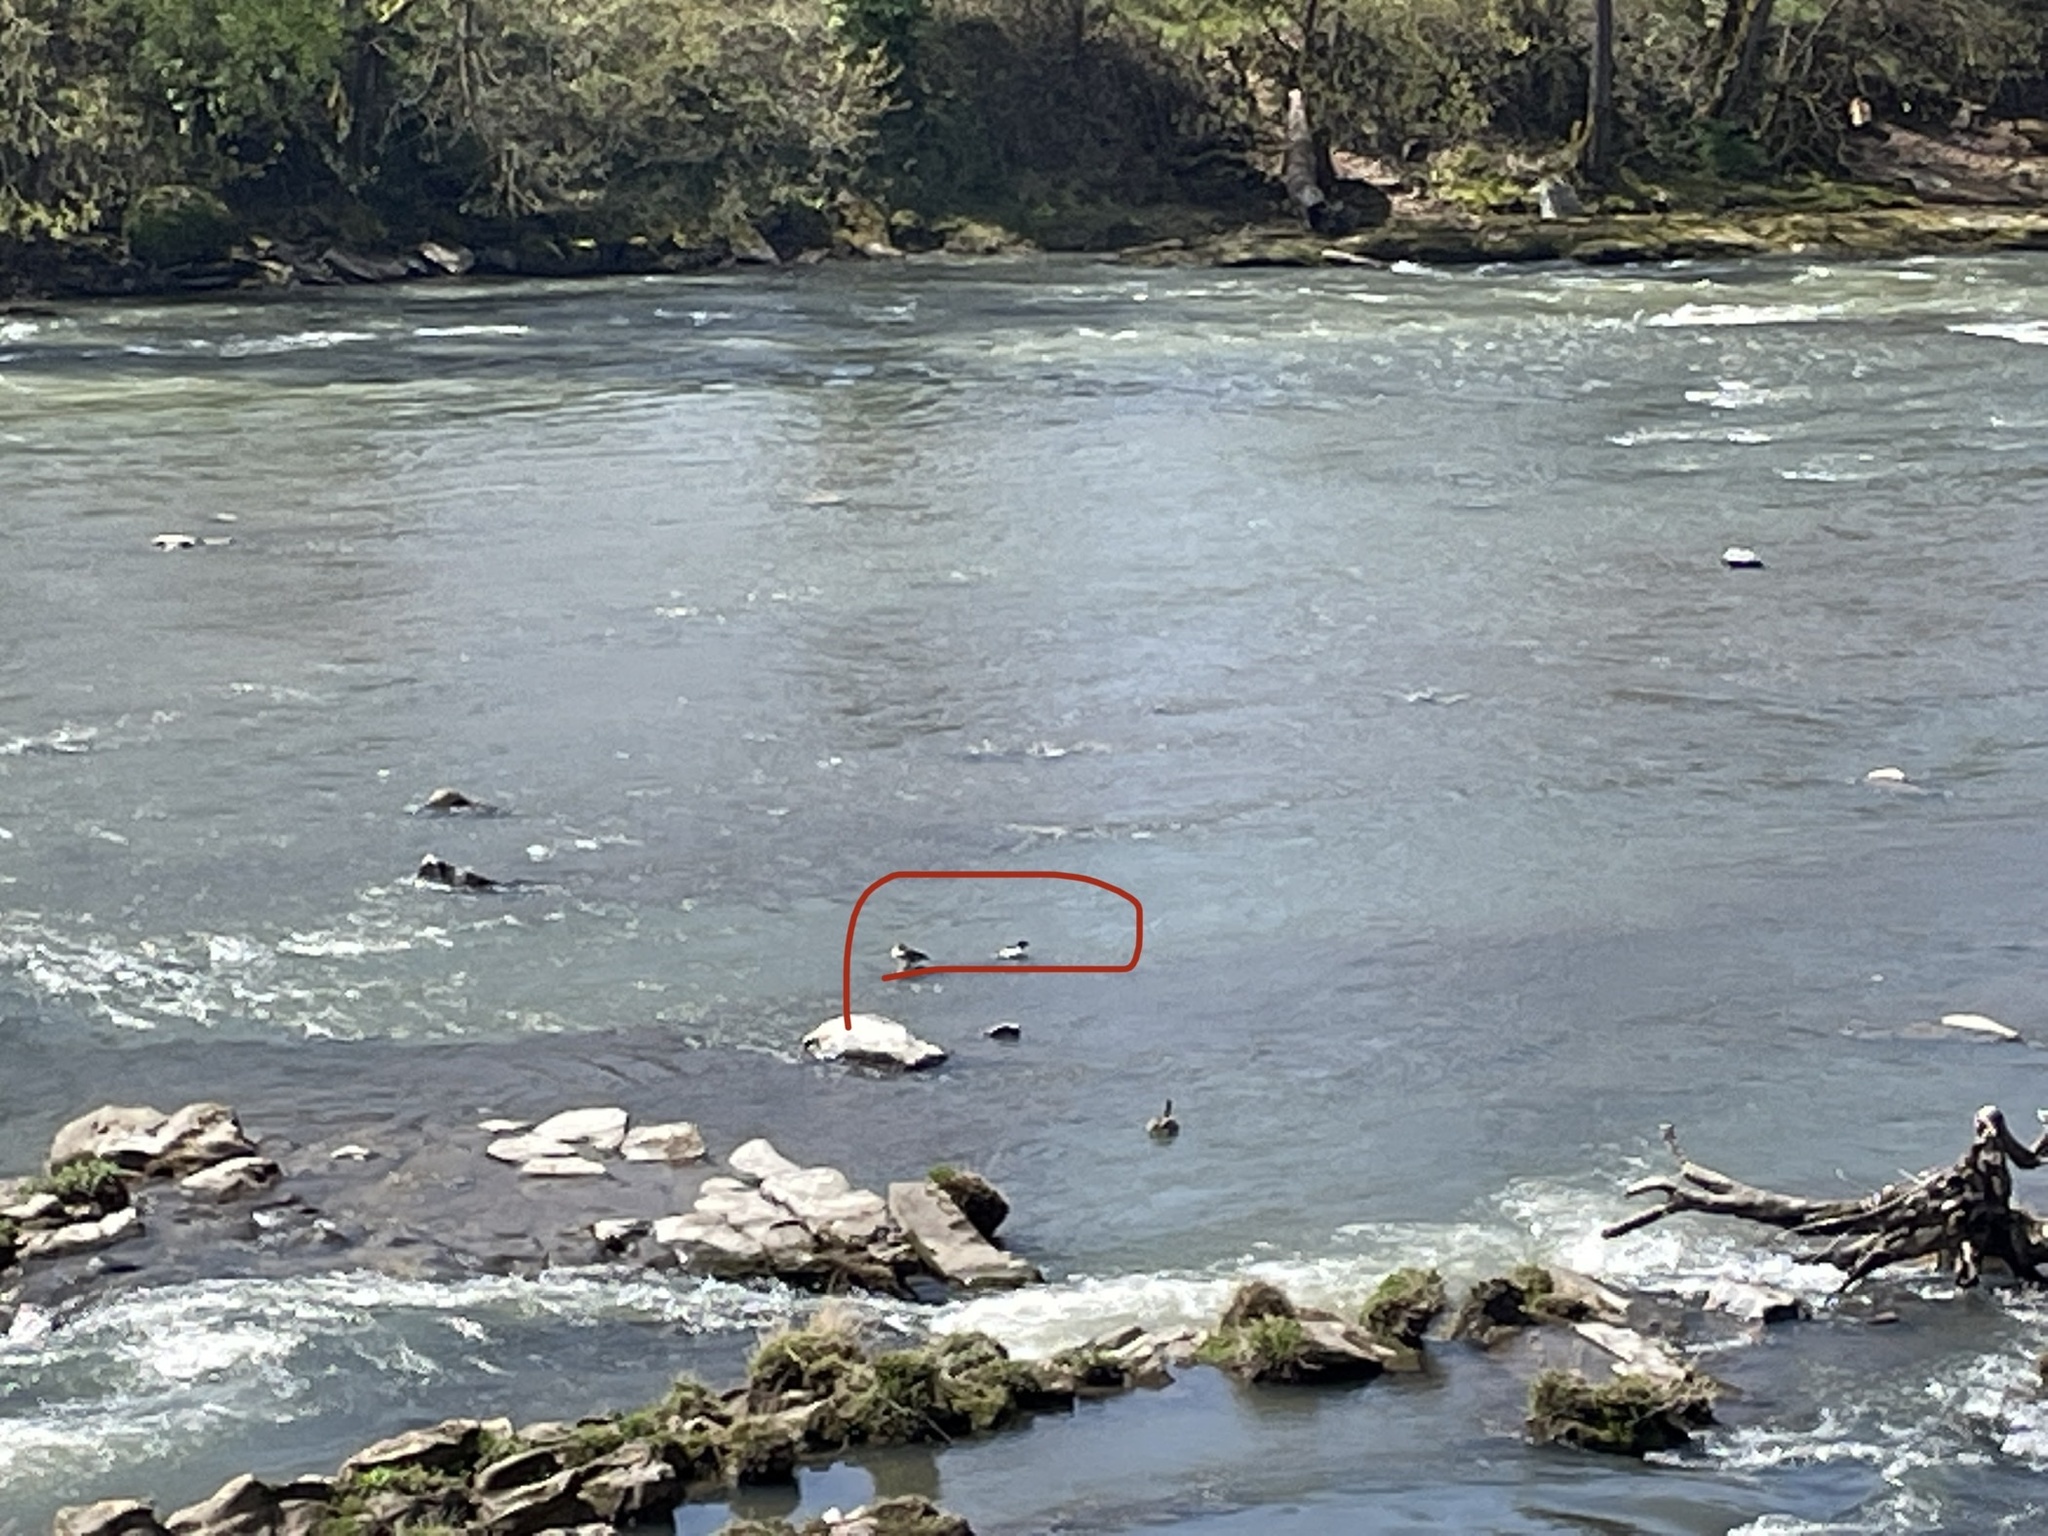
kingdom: Animalia
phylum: Chordata
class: Aves
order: Anseriformes
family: Anatidae
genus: Mergus
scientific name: Mergus merganser
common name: Common merganser
